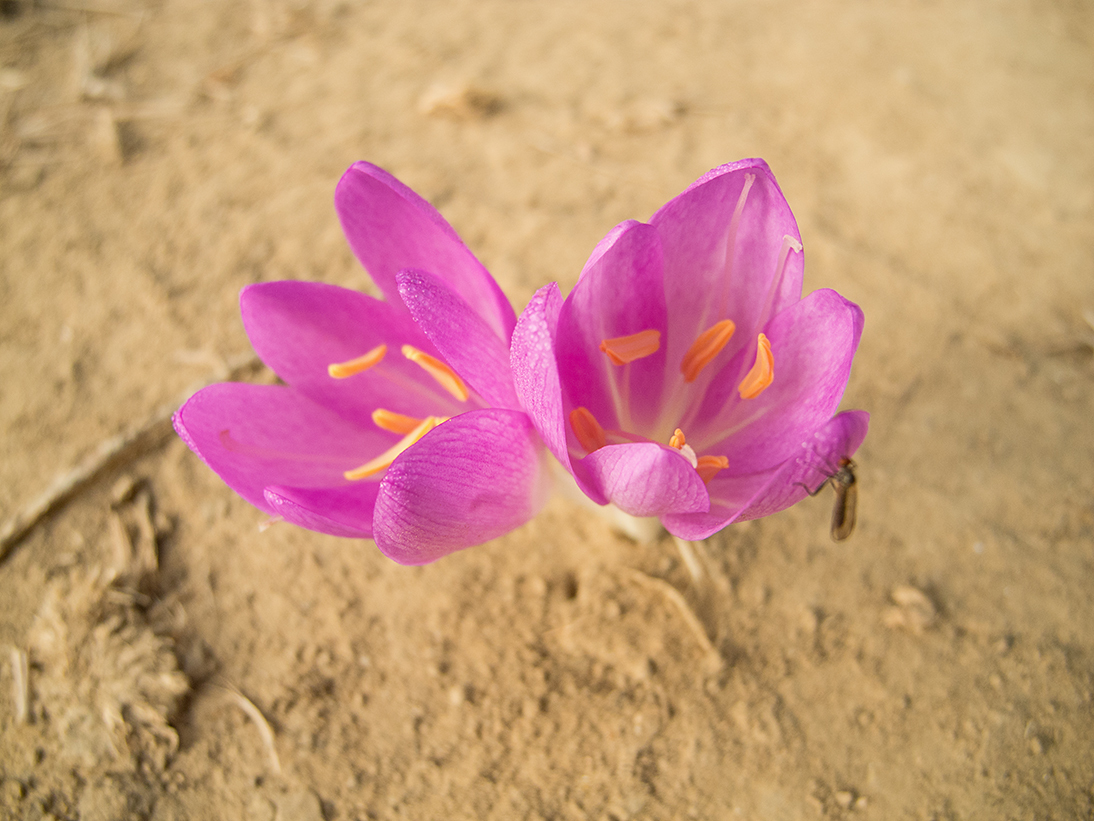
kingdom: Plantae
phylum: Tracheophyta
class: Liliopsida
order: Liliales
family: Colchicaceae
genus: Colchicum
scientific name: Colchicum autumnale
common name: Autumn crocus
